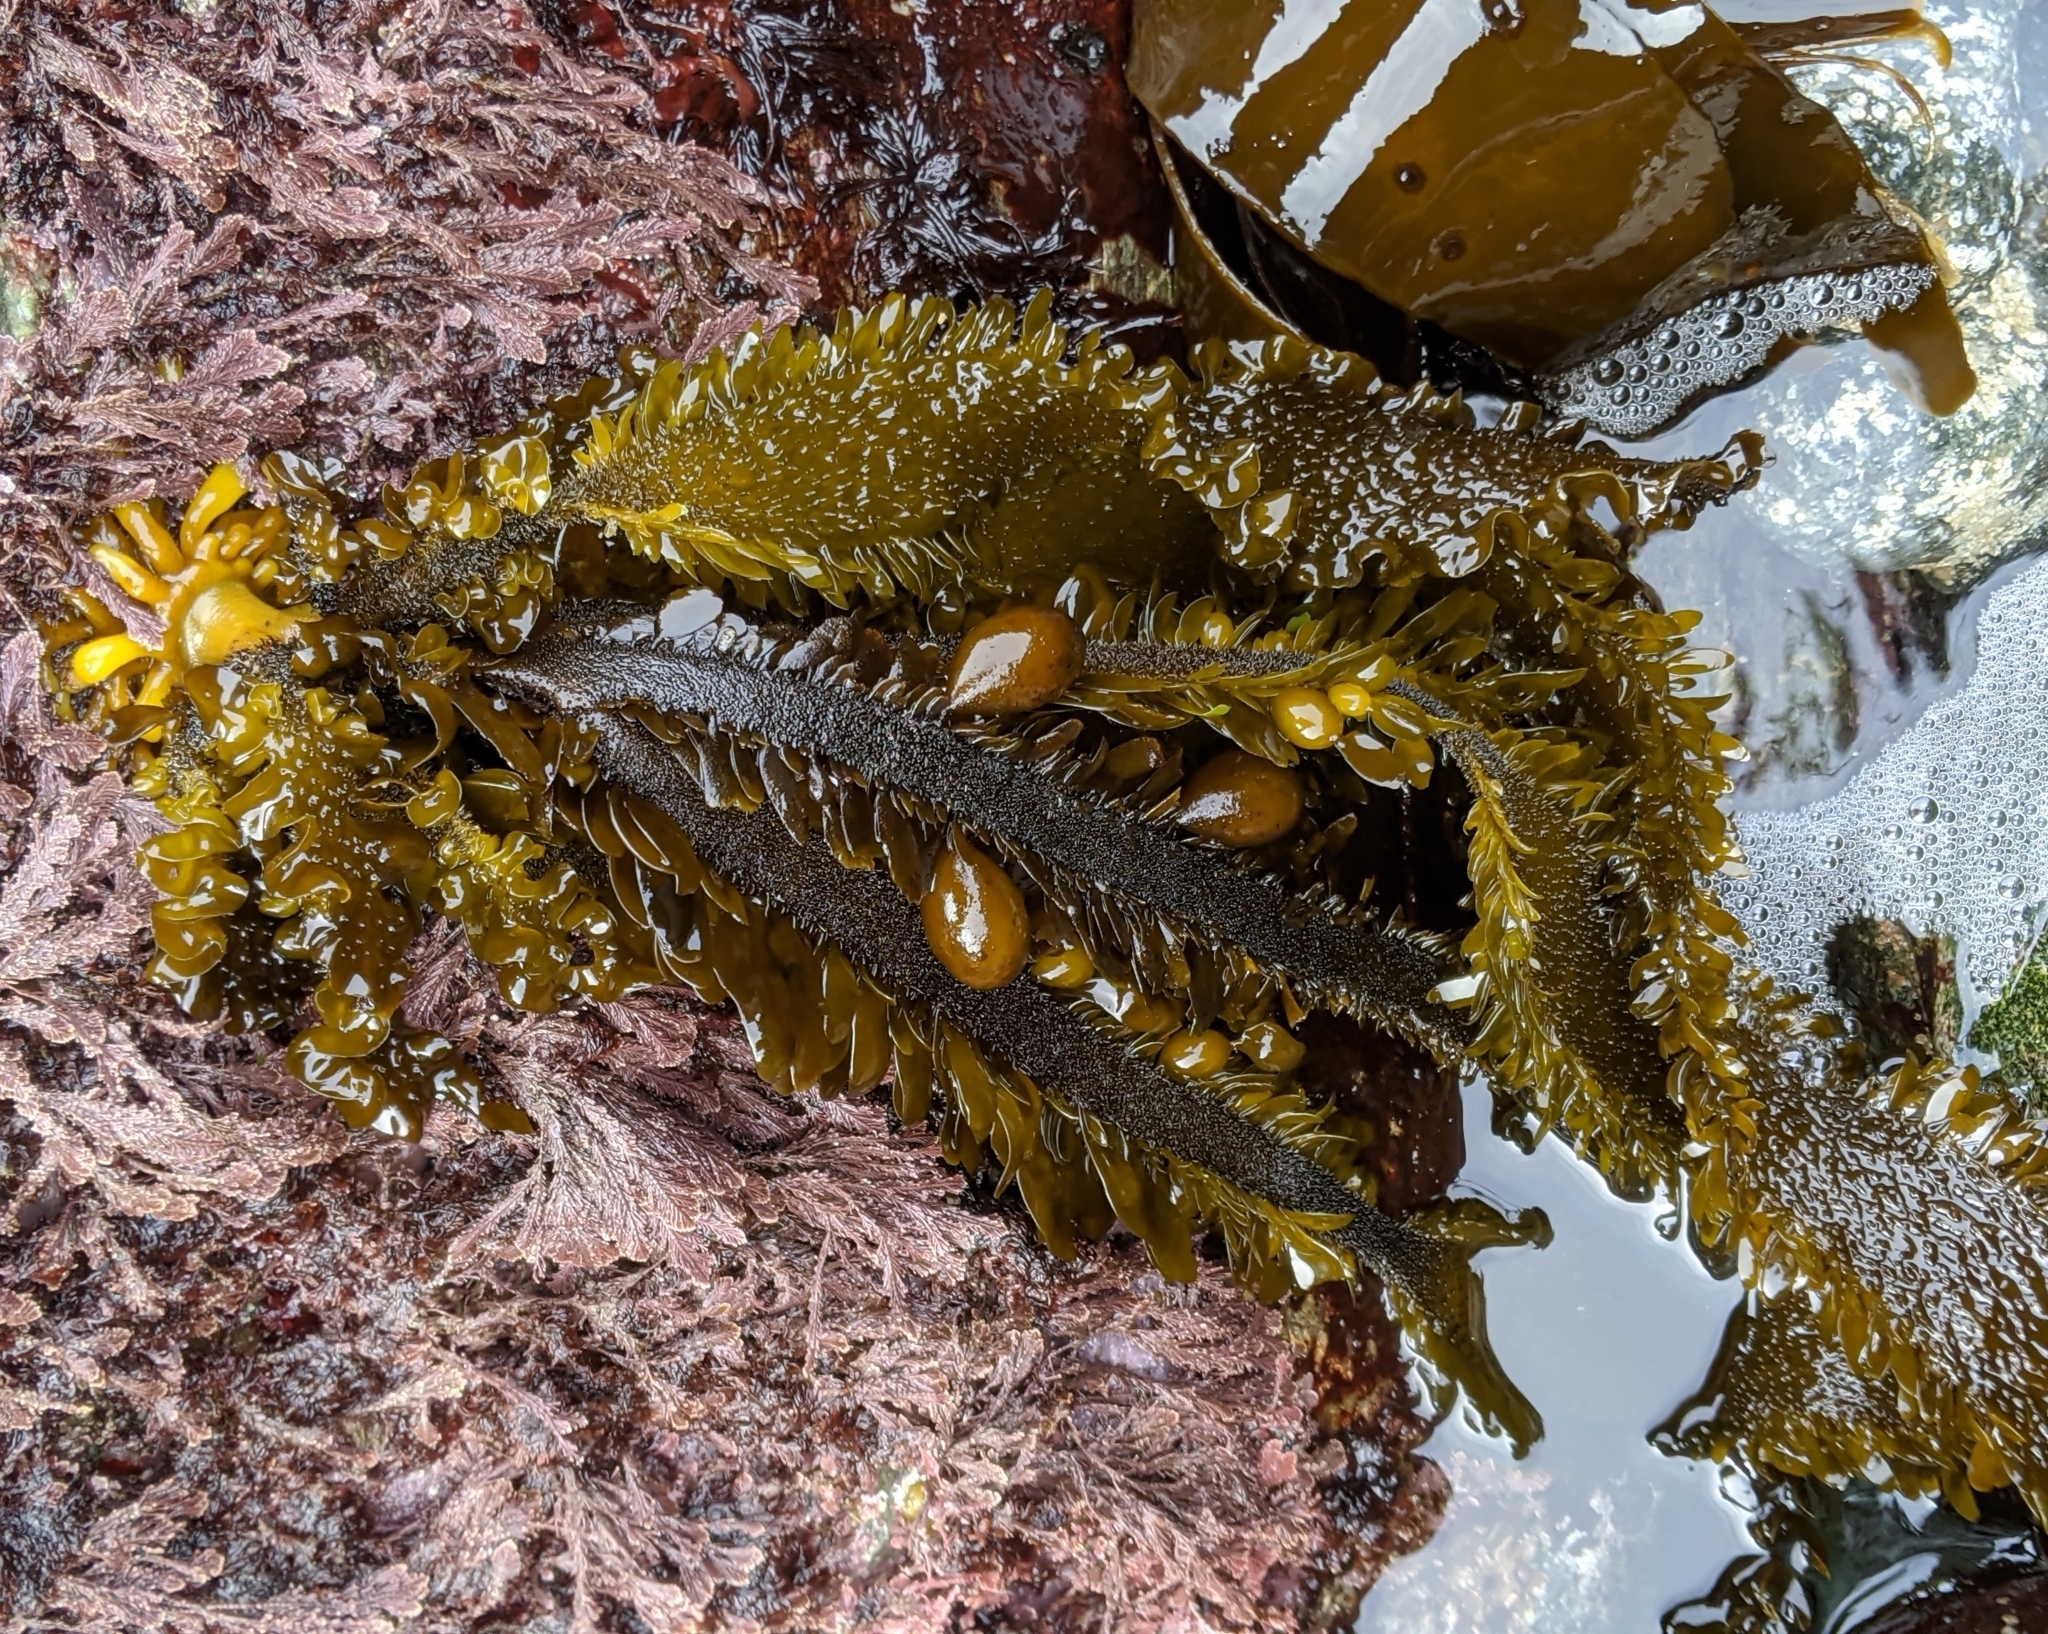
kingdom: Chromista
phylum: Ochrophyta
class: Phaeophyceae
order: Laminariales
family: Lessoniaceae
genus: Egregia
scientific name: Egregia menziesii
